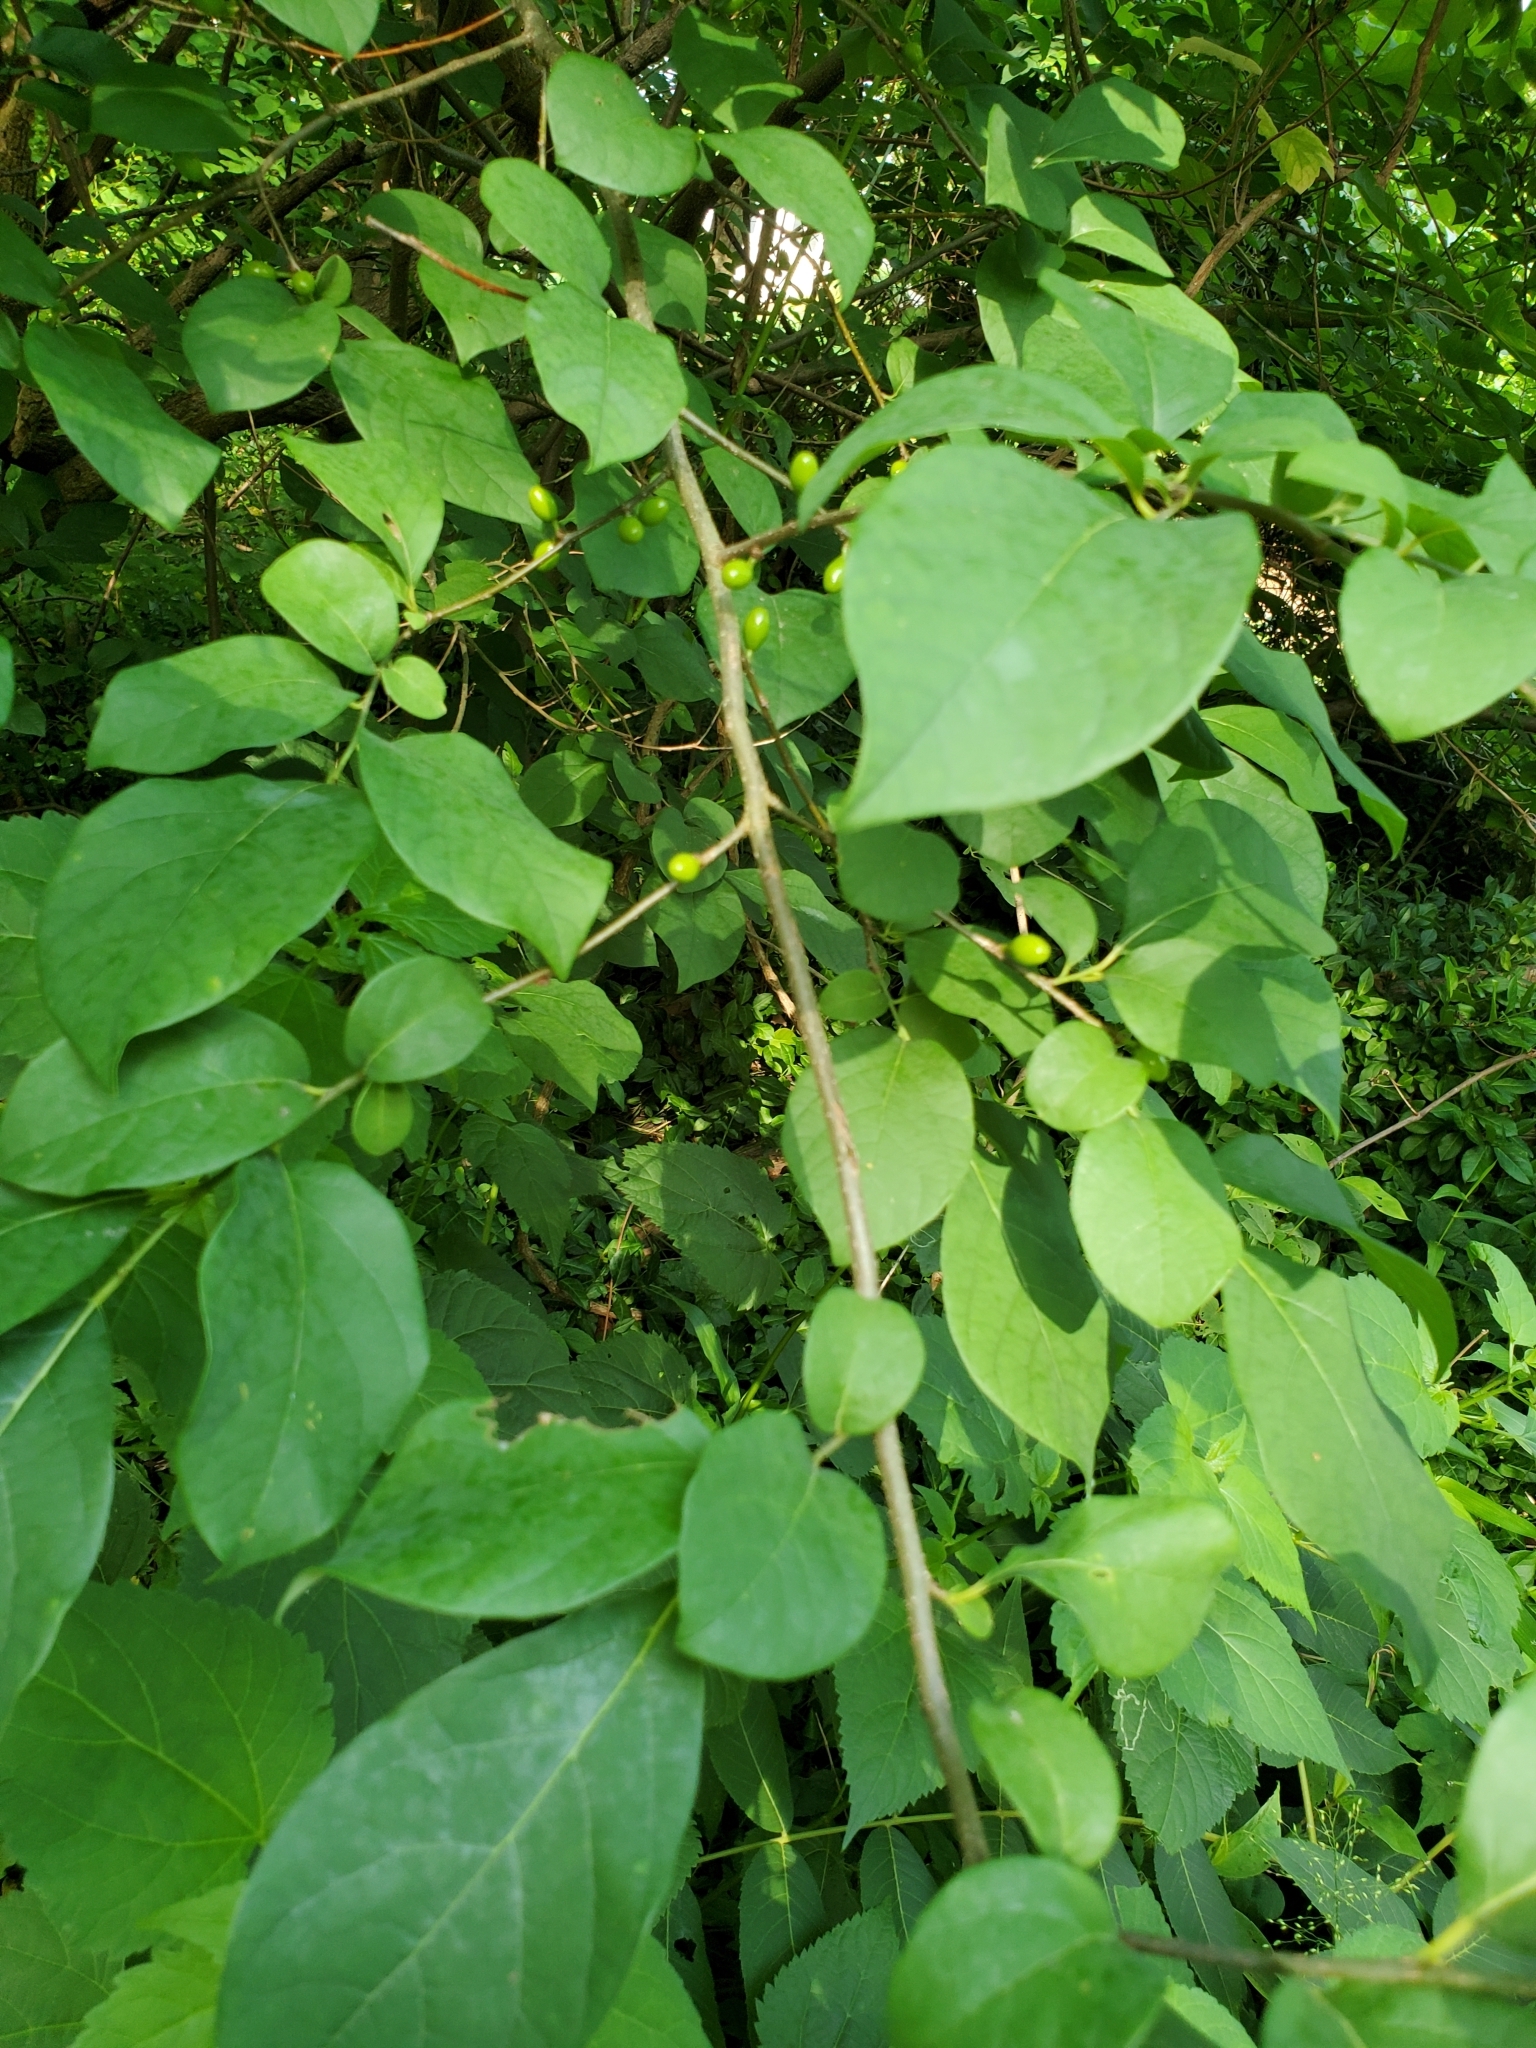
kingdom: Plantae
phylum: Tracheophyta
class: Magnoliopsida
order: Laurales
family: Lauraceae
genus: Lindera
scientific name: Lindera benzoin
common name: Spicebush
